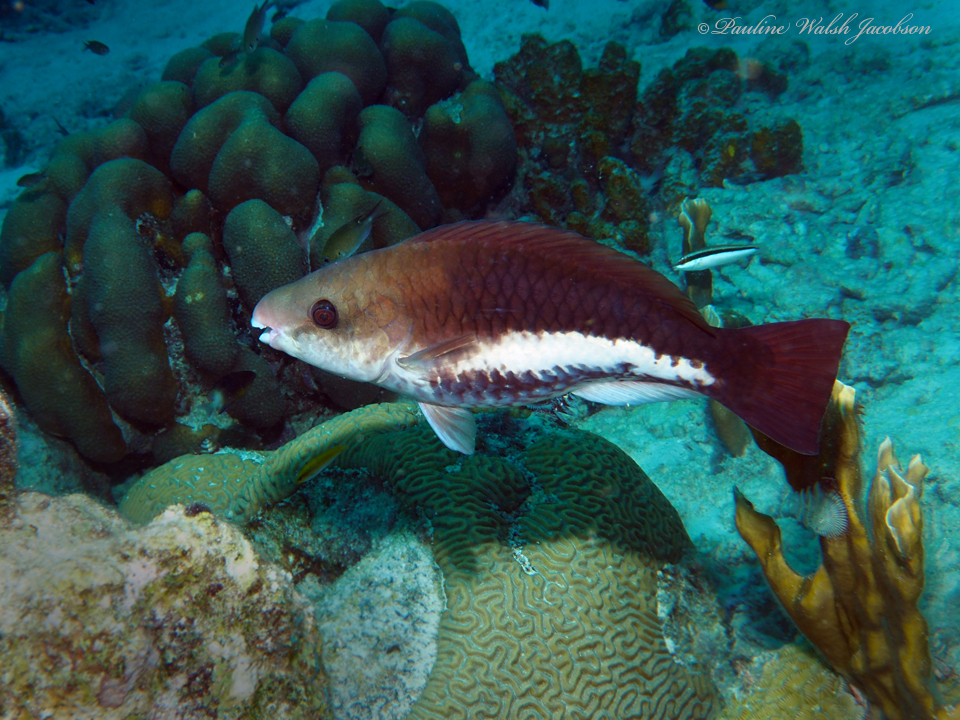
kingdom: Animalia
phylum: Chordata
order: Perciformes
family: Scaridae
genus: Scarus
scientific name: Scarus vetula
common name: Queen parrotfish
